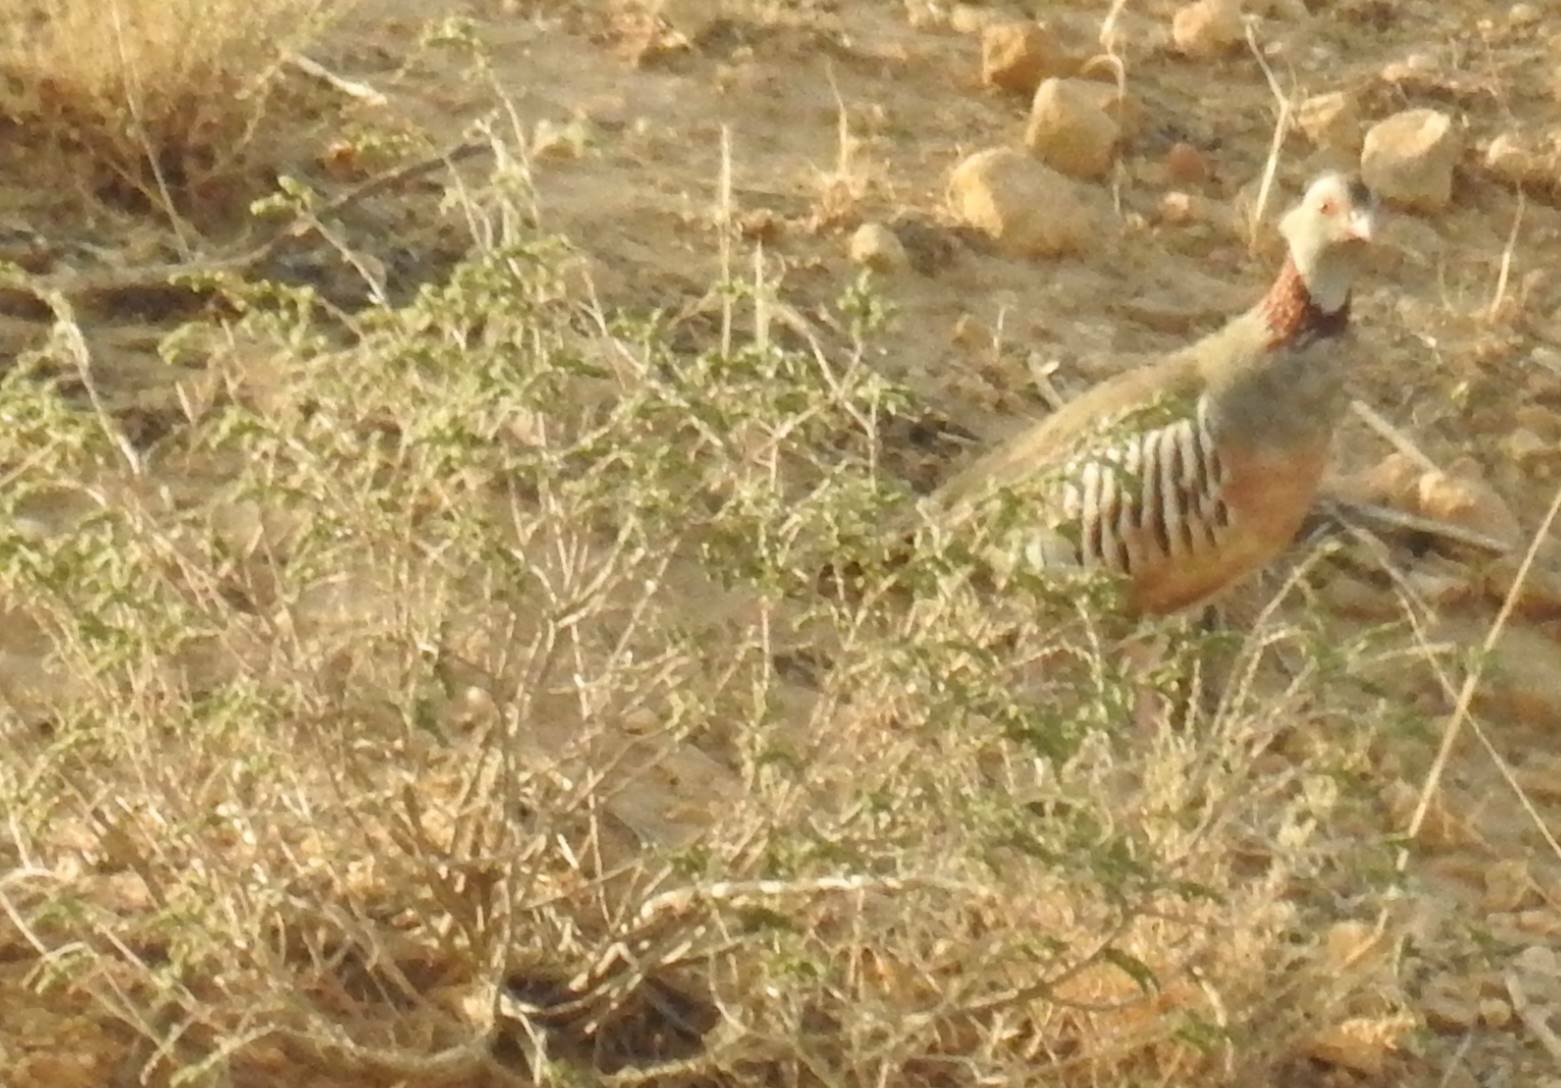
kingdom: Animalia
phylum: Chordata
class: Aves
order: Galliformes
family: Phasianidae
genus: Alectoris
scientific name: Alectoris barbara
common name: Barbary partridge
